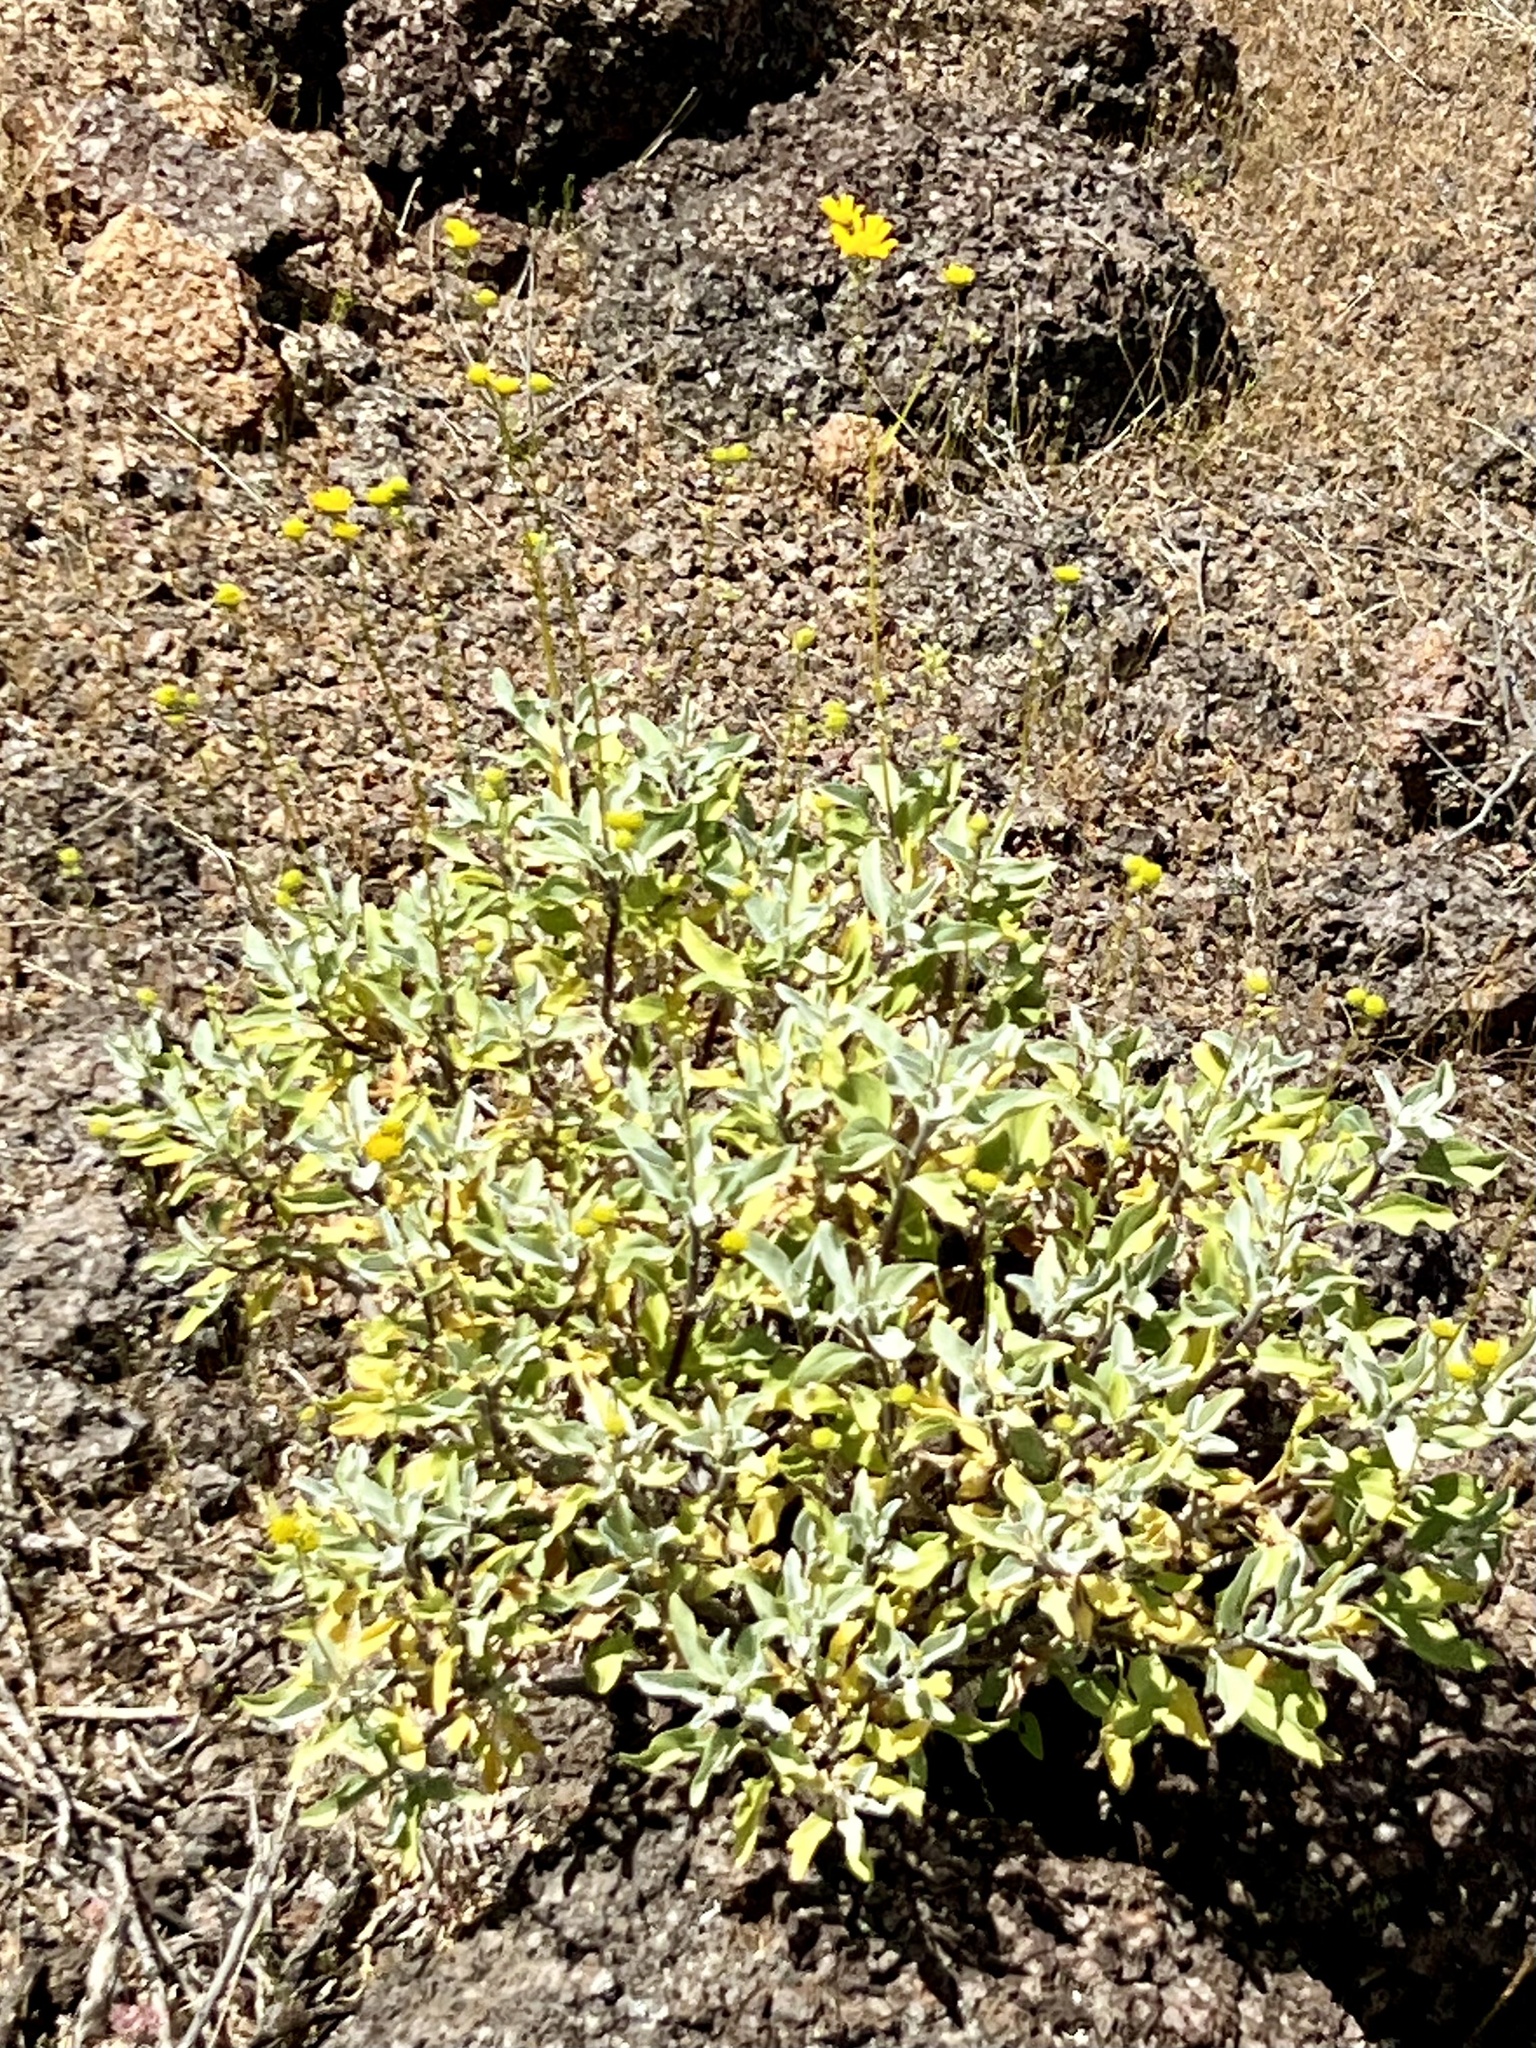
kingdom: Plantae
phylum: Tracheophyta
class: Magnoliopsida
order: Asterales
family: Asteraceae
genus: Encelia
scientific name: Encelia farinosa
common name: Brittlebush
